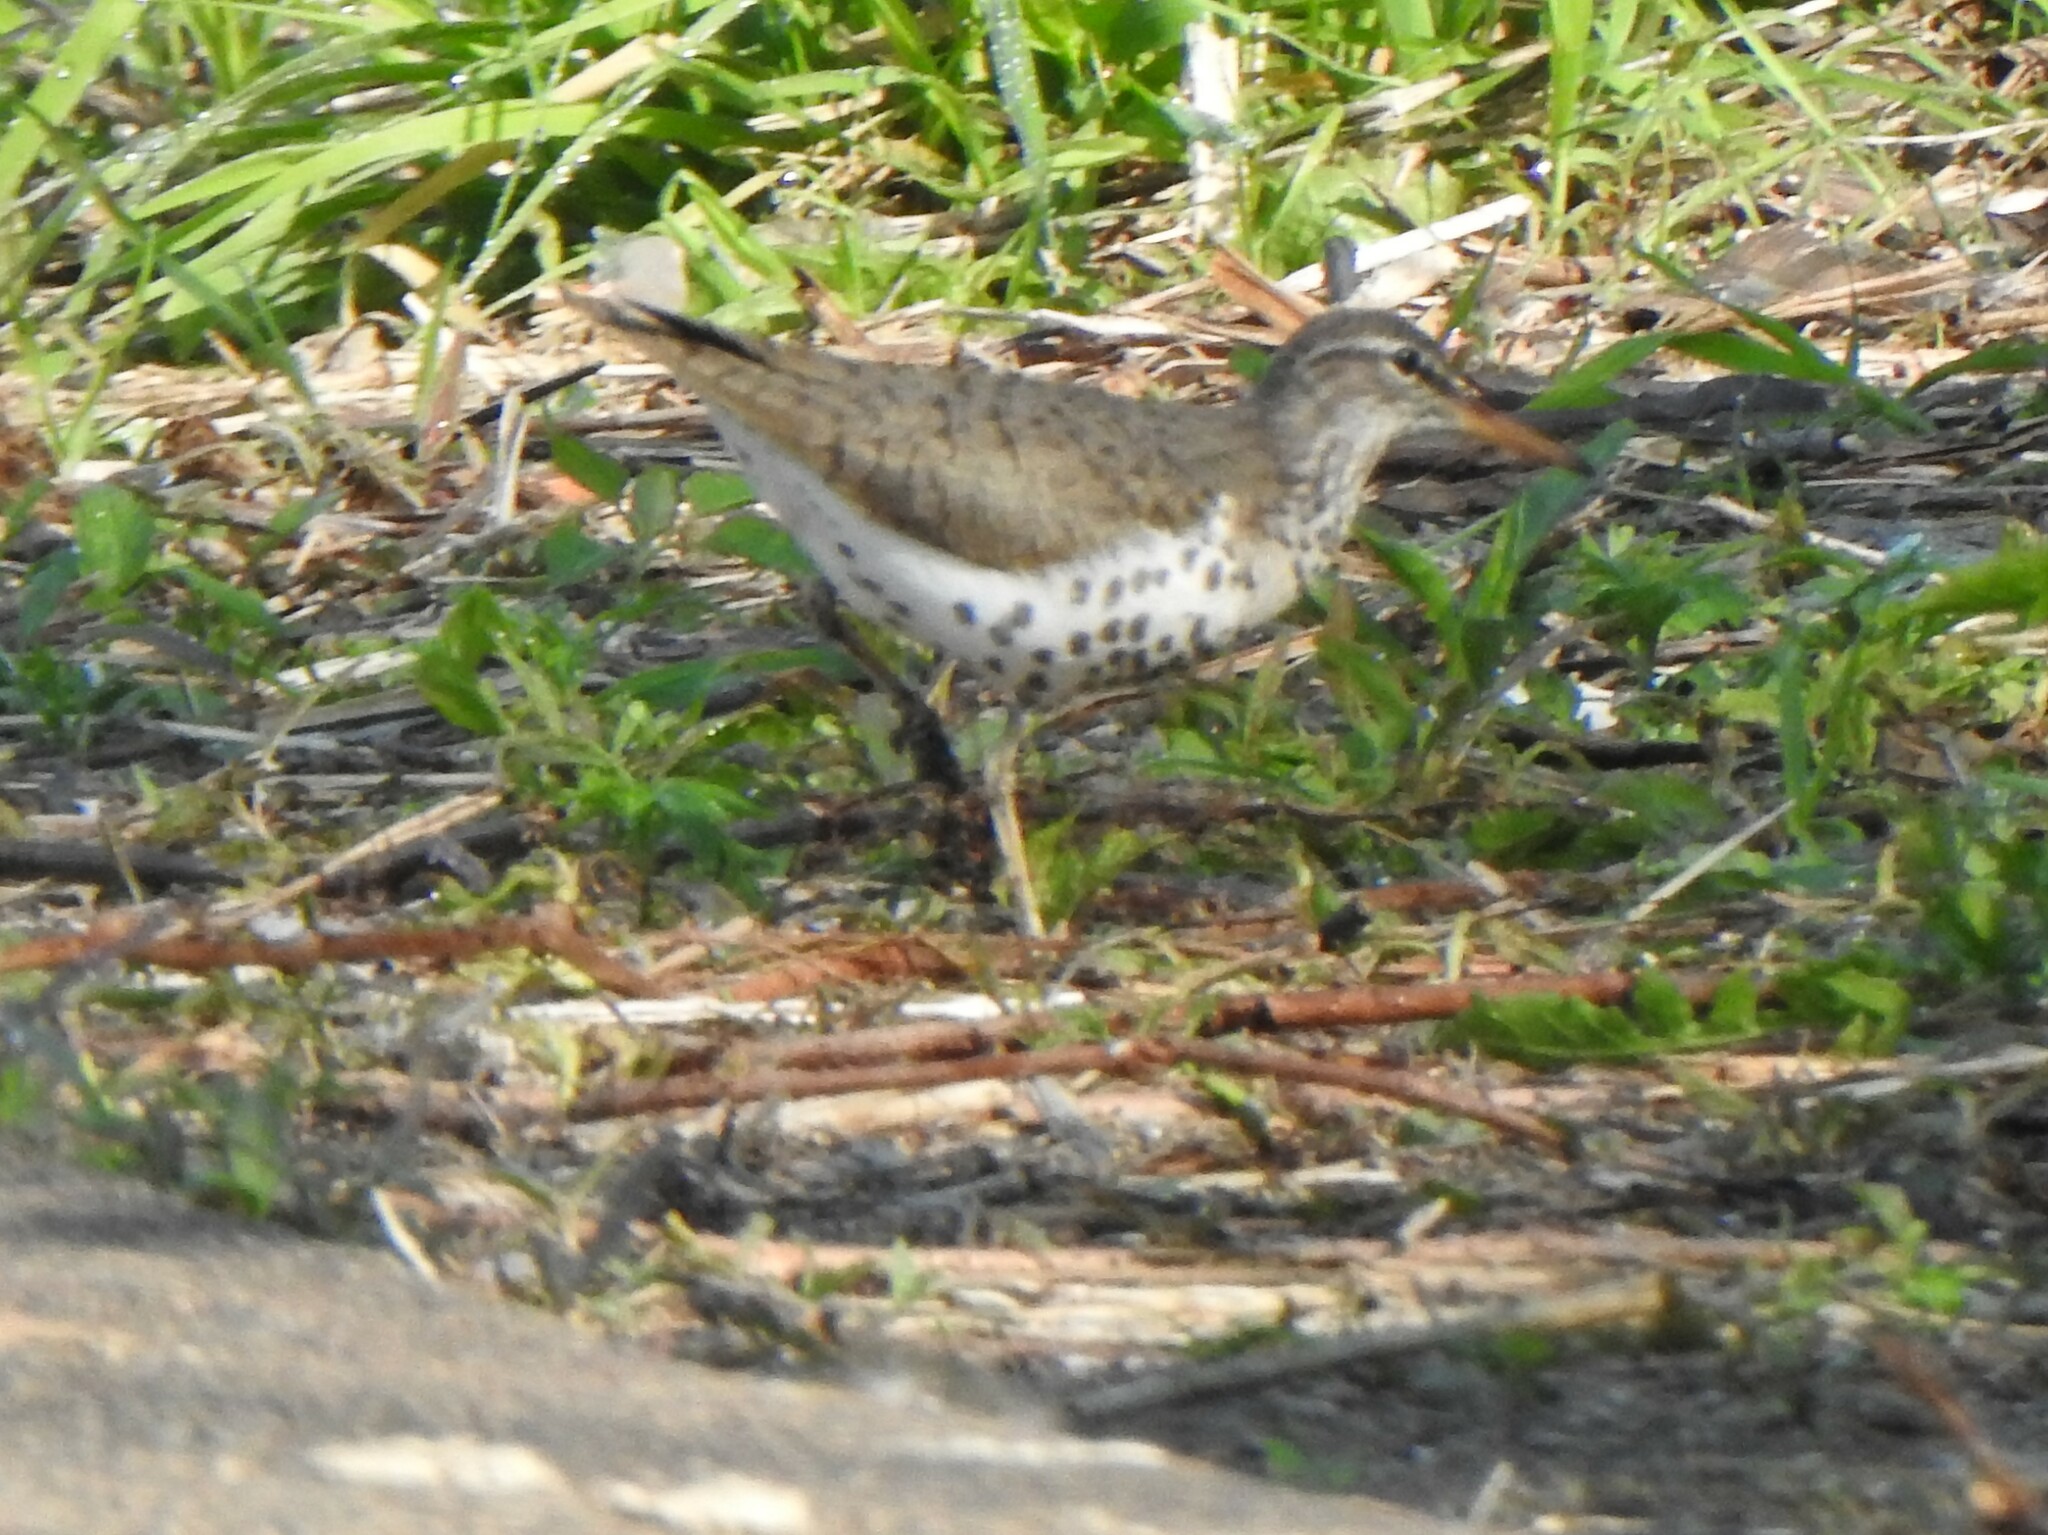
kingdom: Animalia
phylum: Chordata
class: Aves
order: Charadriiformes
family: Scolopacidae
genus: Actitis
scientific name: Actitis macularius
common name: Spotted sandpiper
